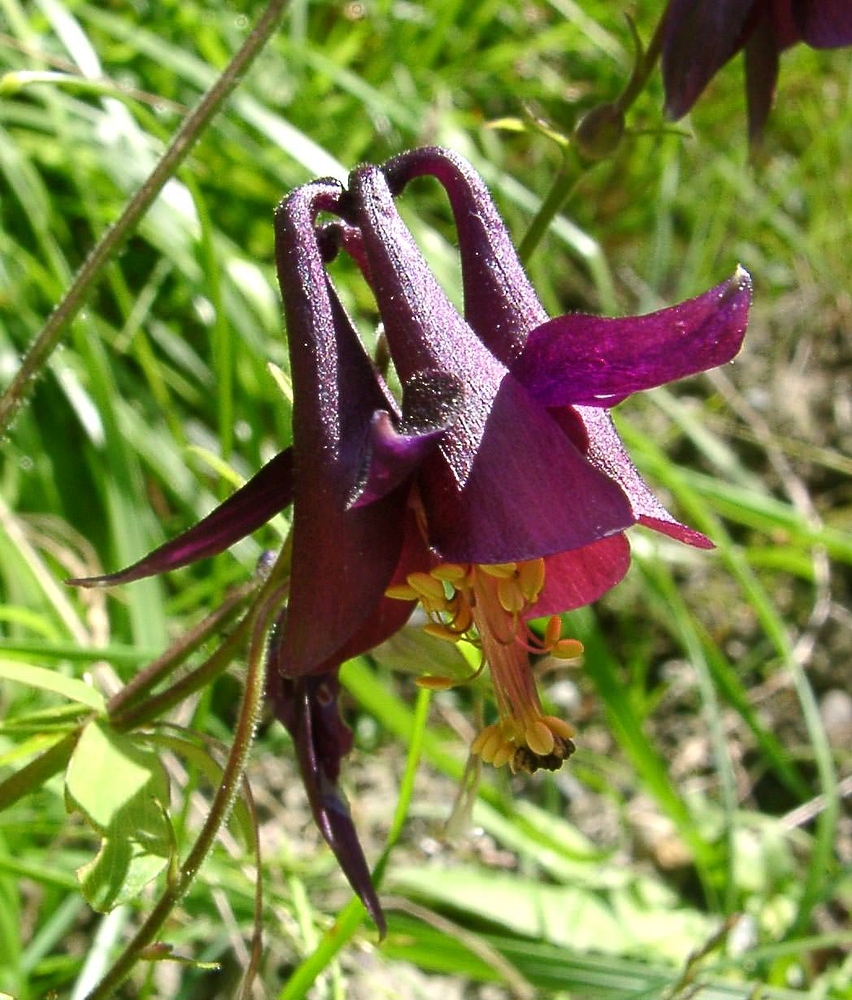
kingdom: Plantae
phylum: Tracheophyta
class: Magnoliopsida
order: Ranunculales
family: Ranunculaceae
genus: Aquilegia
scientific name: Aquilegia atrata
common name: Dark columbine
